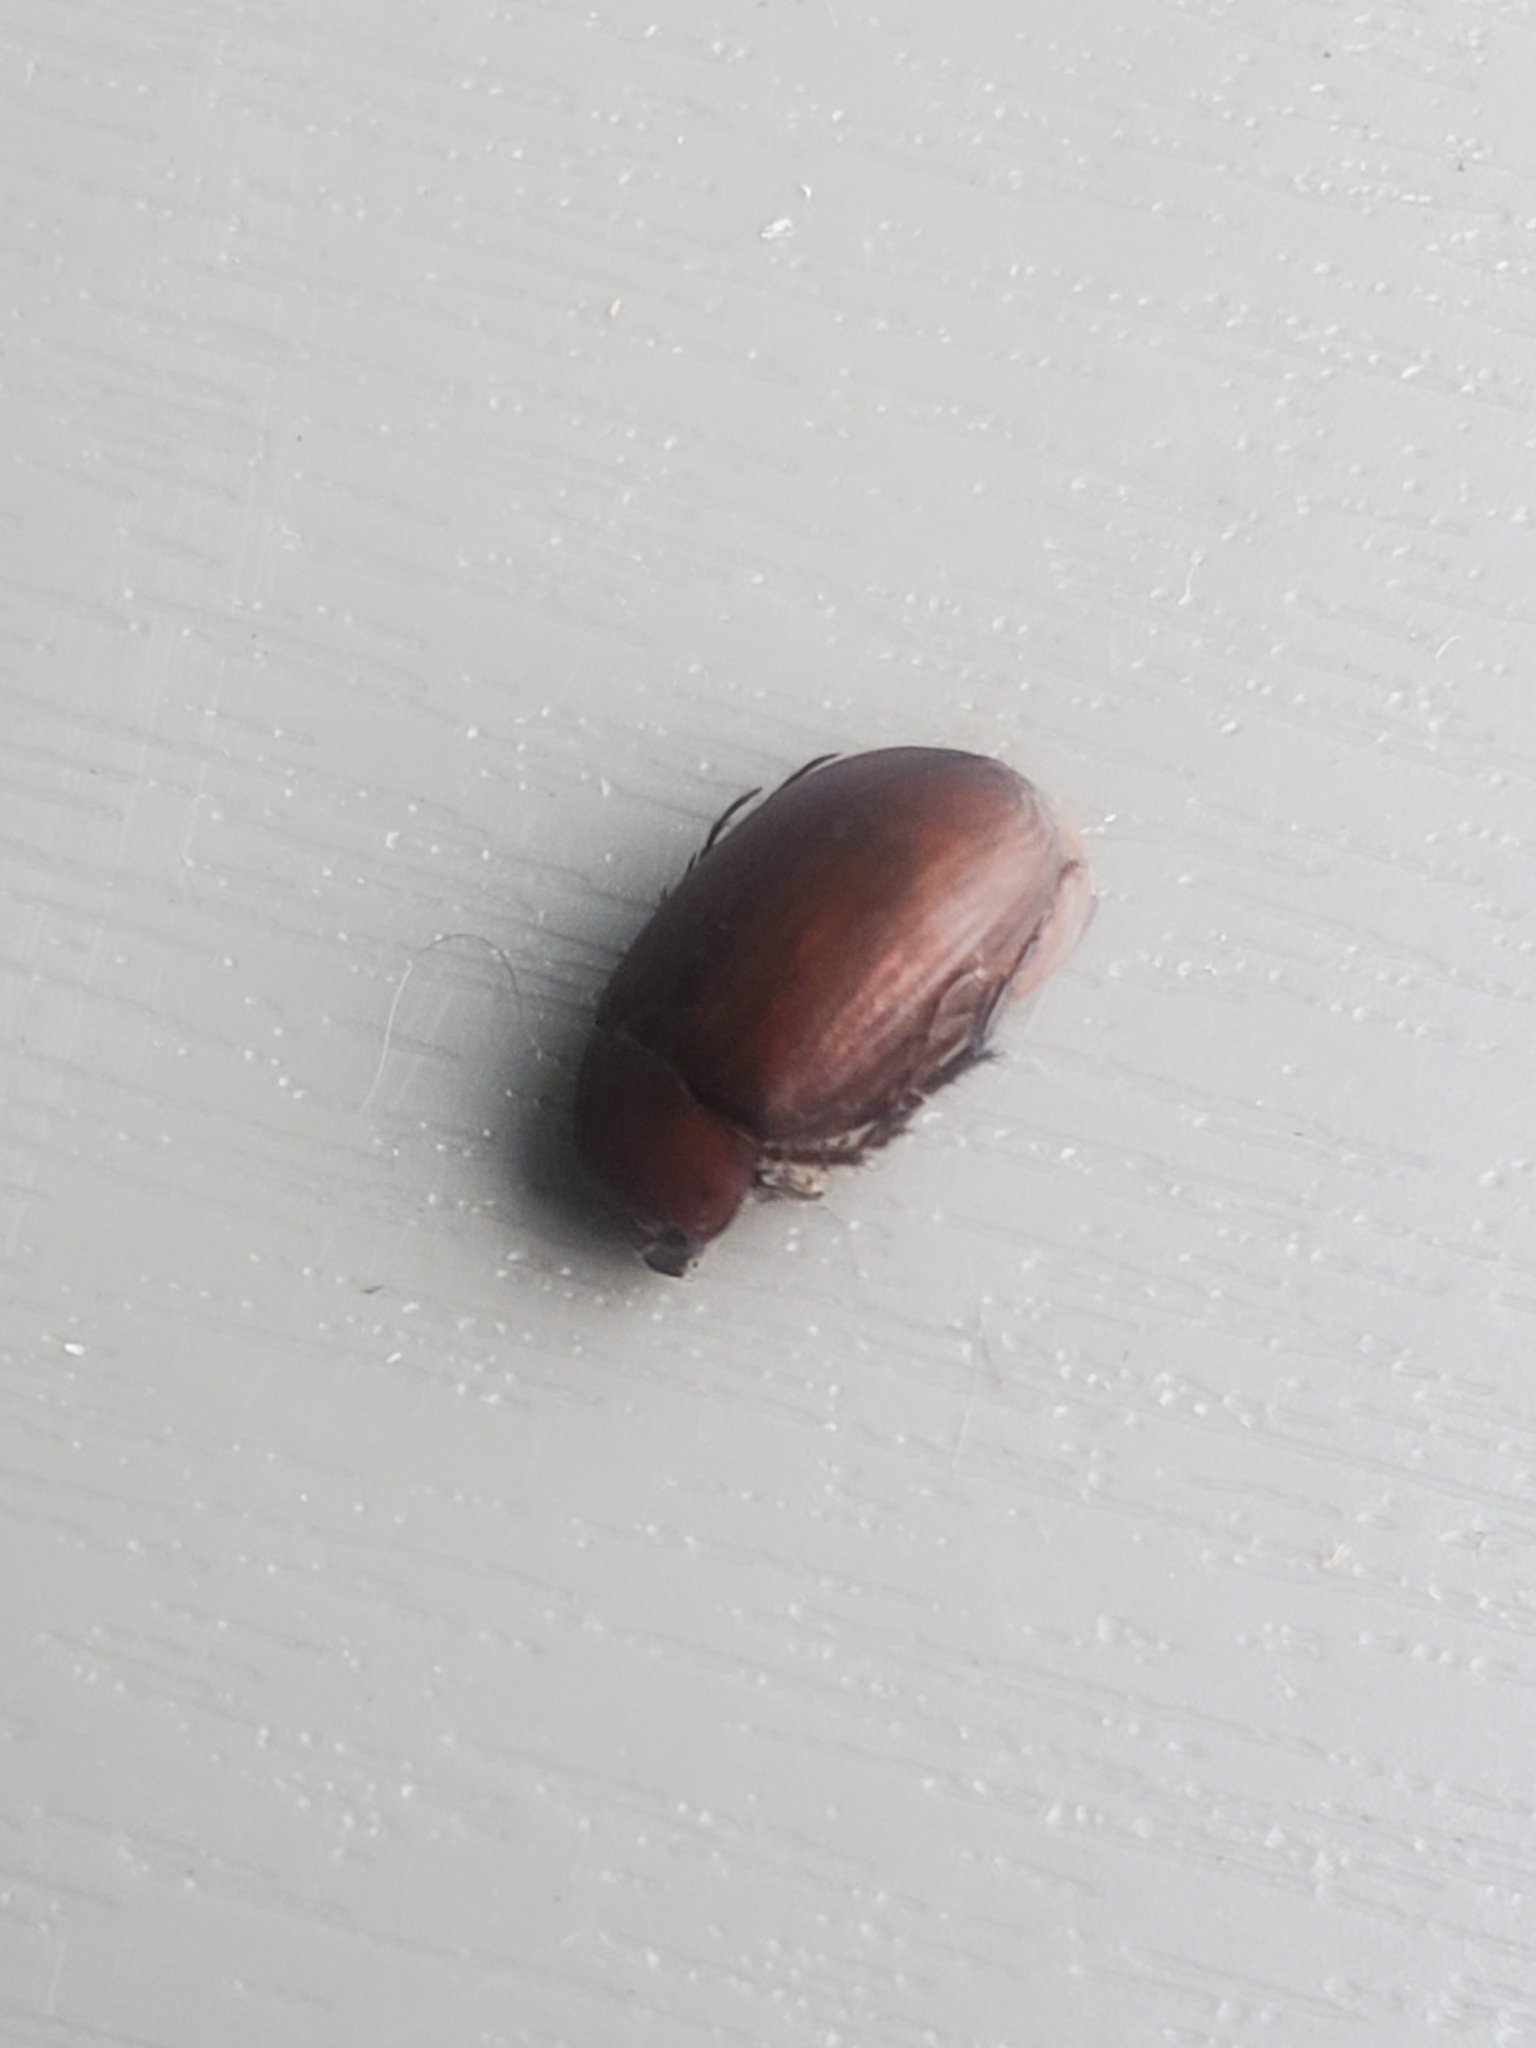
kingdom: Animalia
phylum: Arthropoda
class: Insecta
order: Coleoptera
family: Scarabaeidae
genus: Maladera
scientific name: Maladera formosae
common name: Asiatic garden beetle
